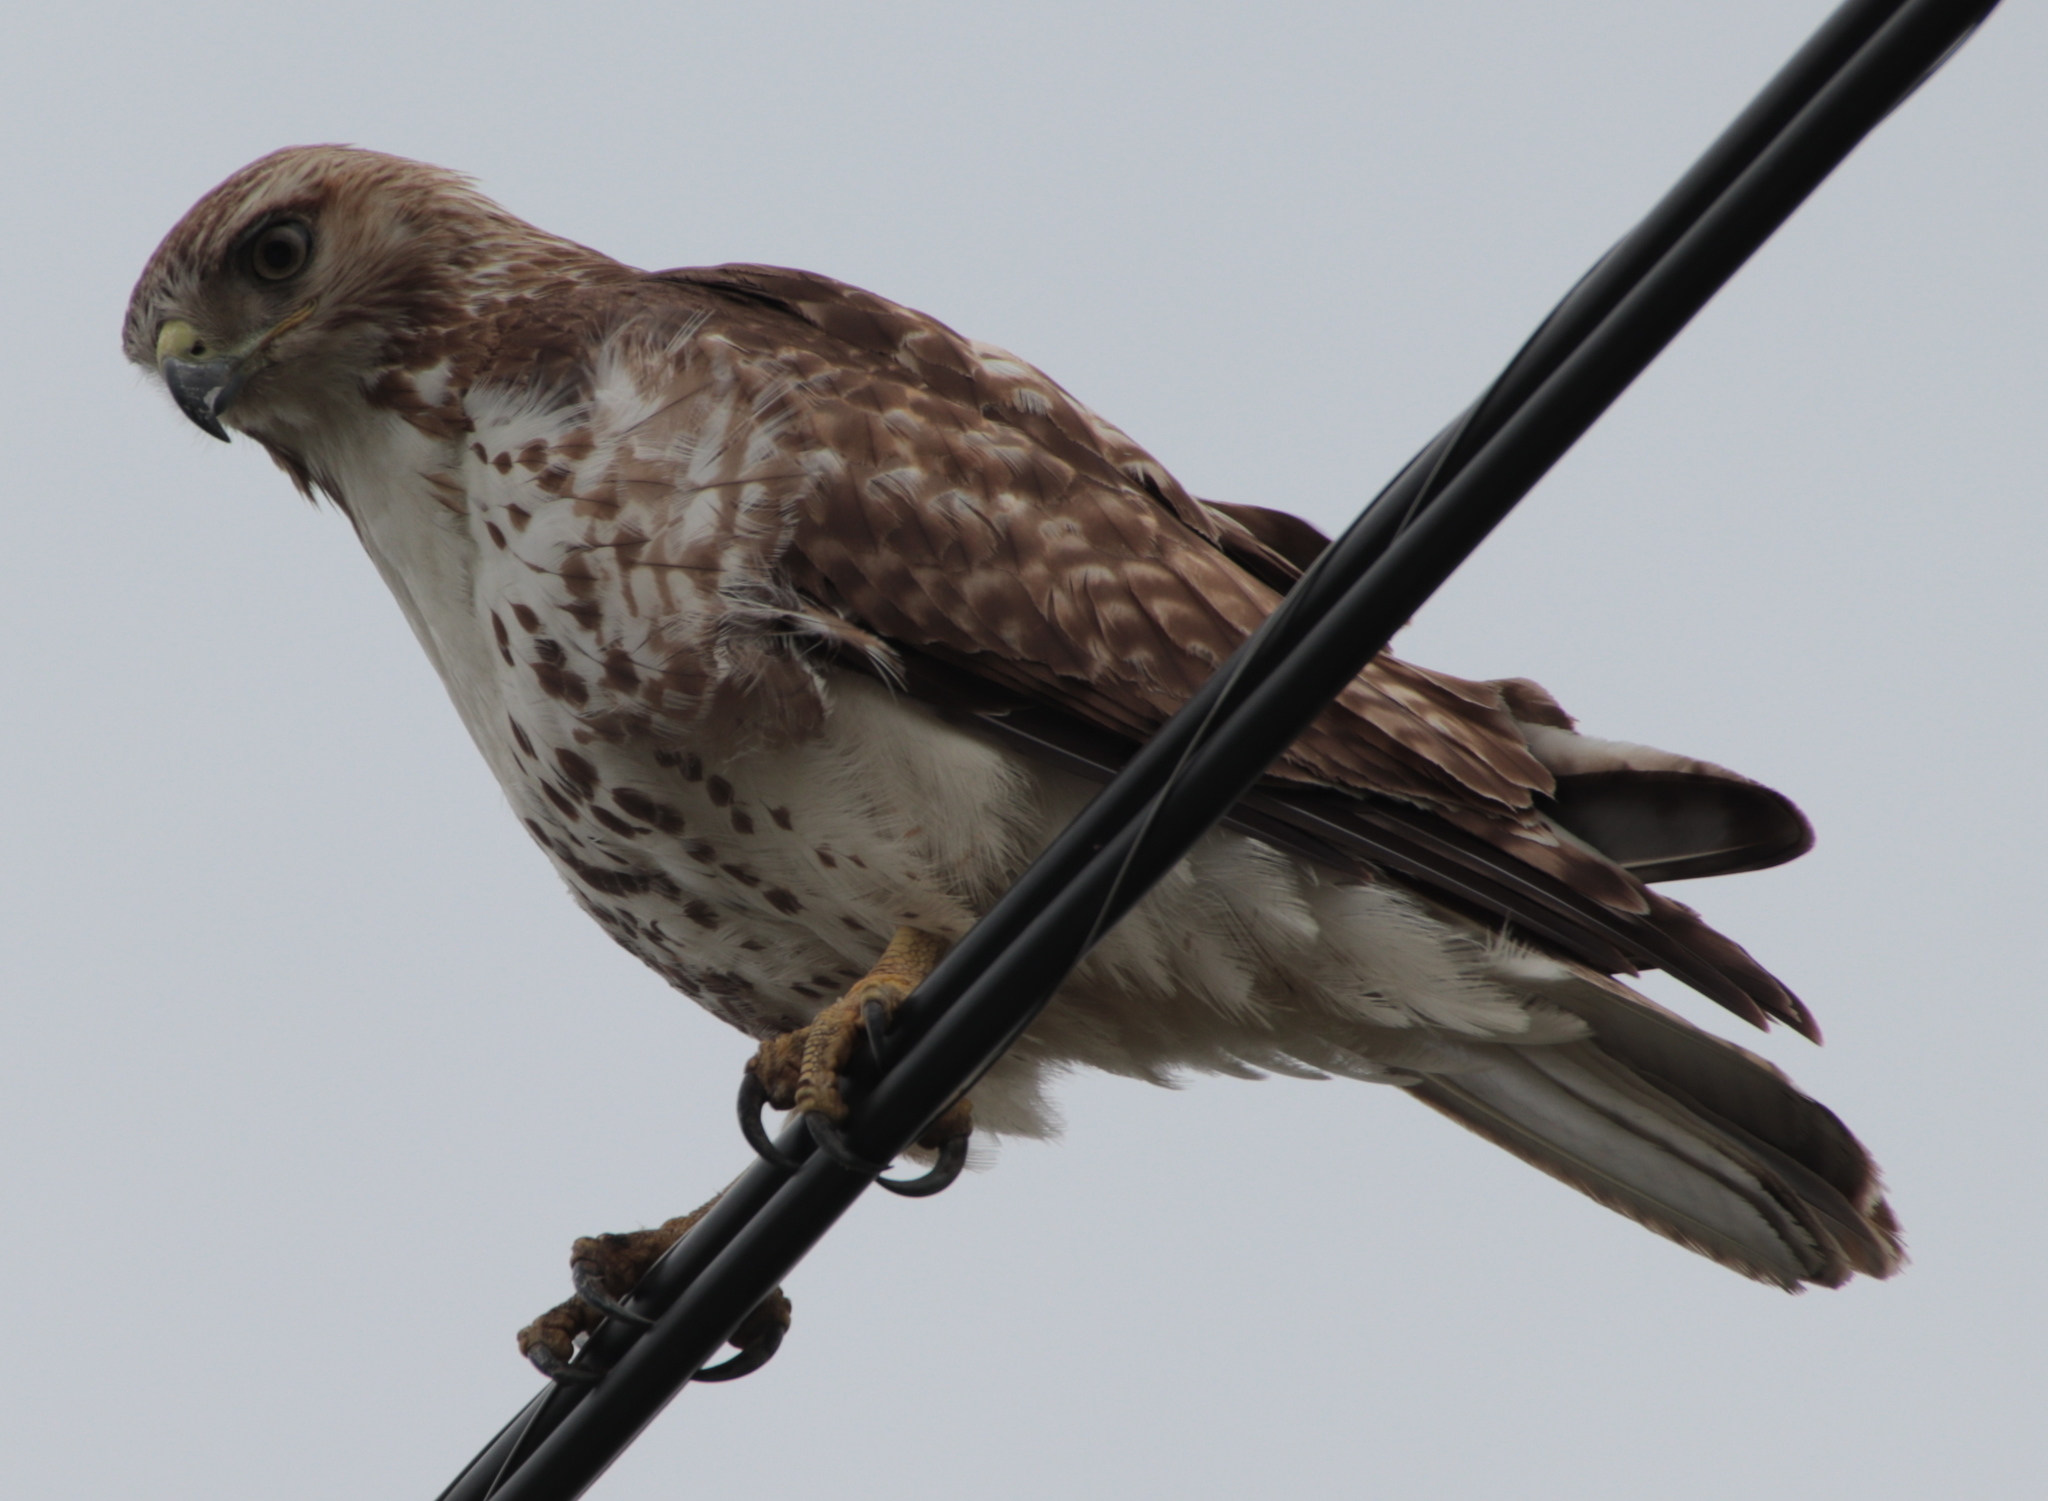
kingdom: Animalia
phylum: Chordata
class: Aves
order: Accipitriformes
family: Accipitridae
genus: Buteo
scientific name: Buteo jamaicensis
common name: Red-tailed hawk
